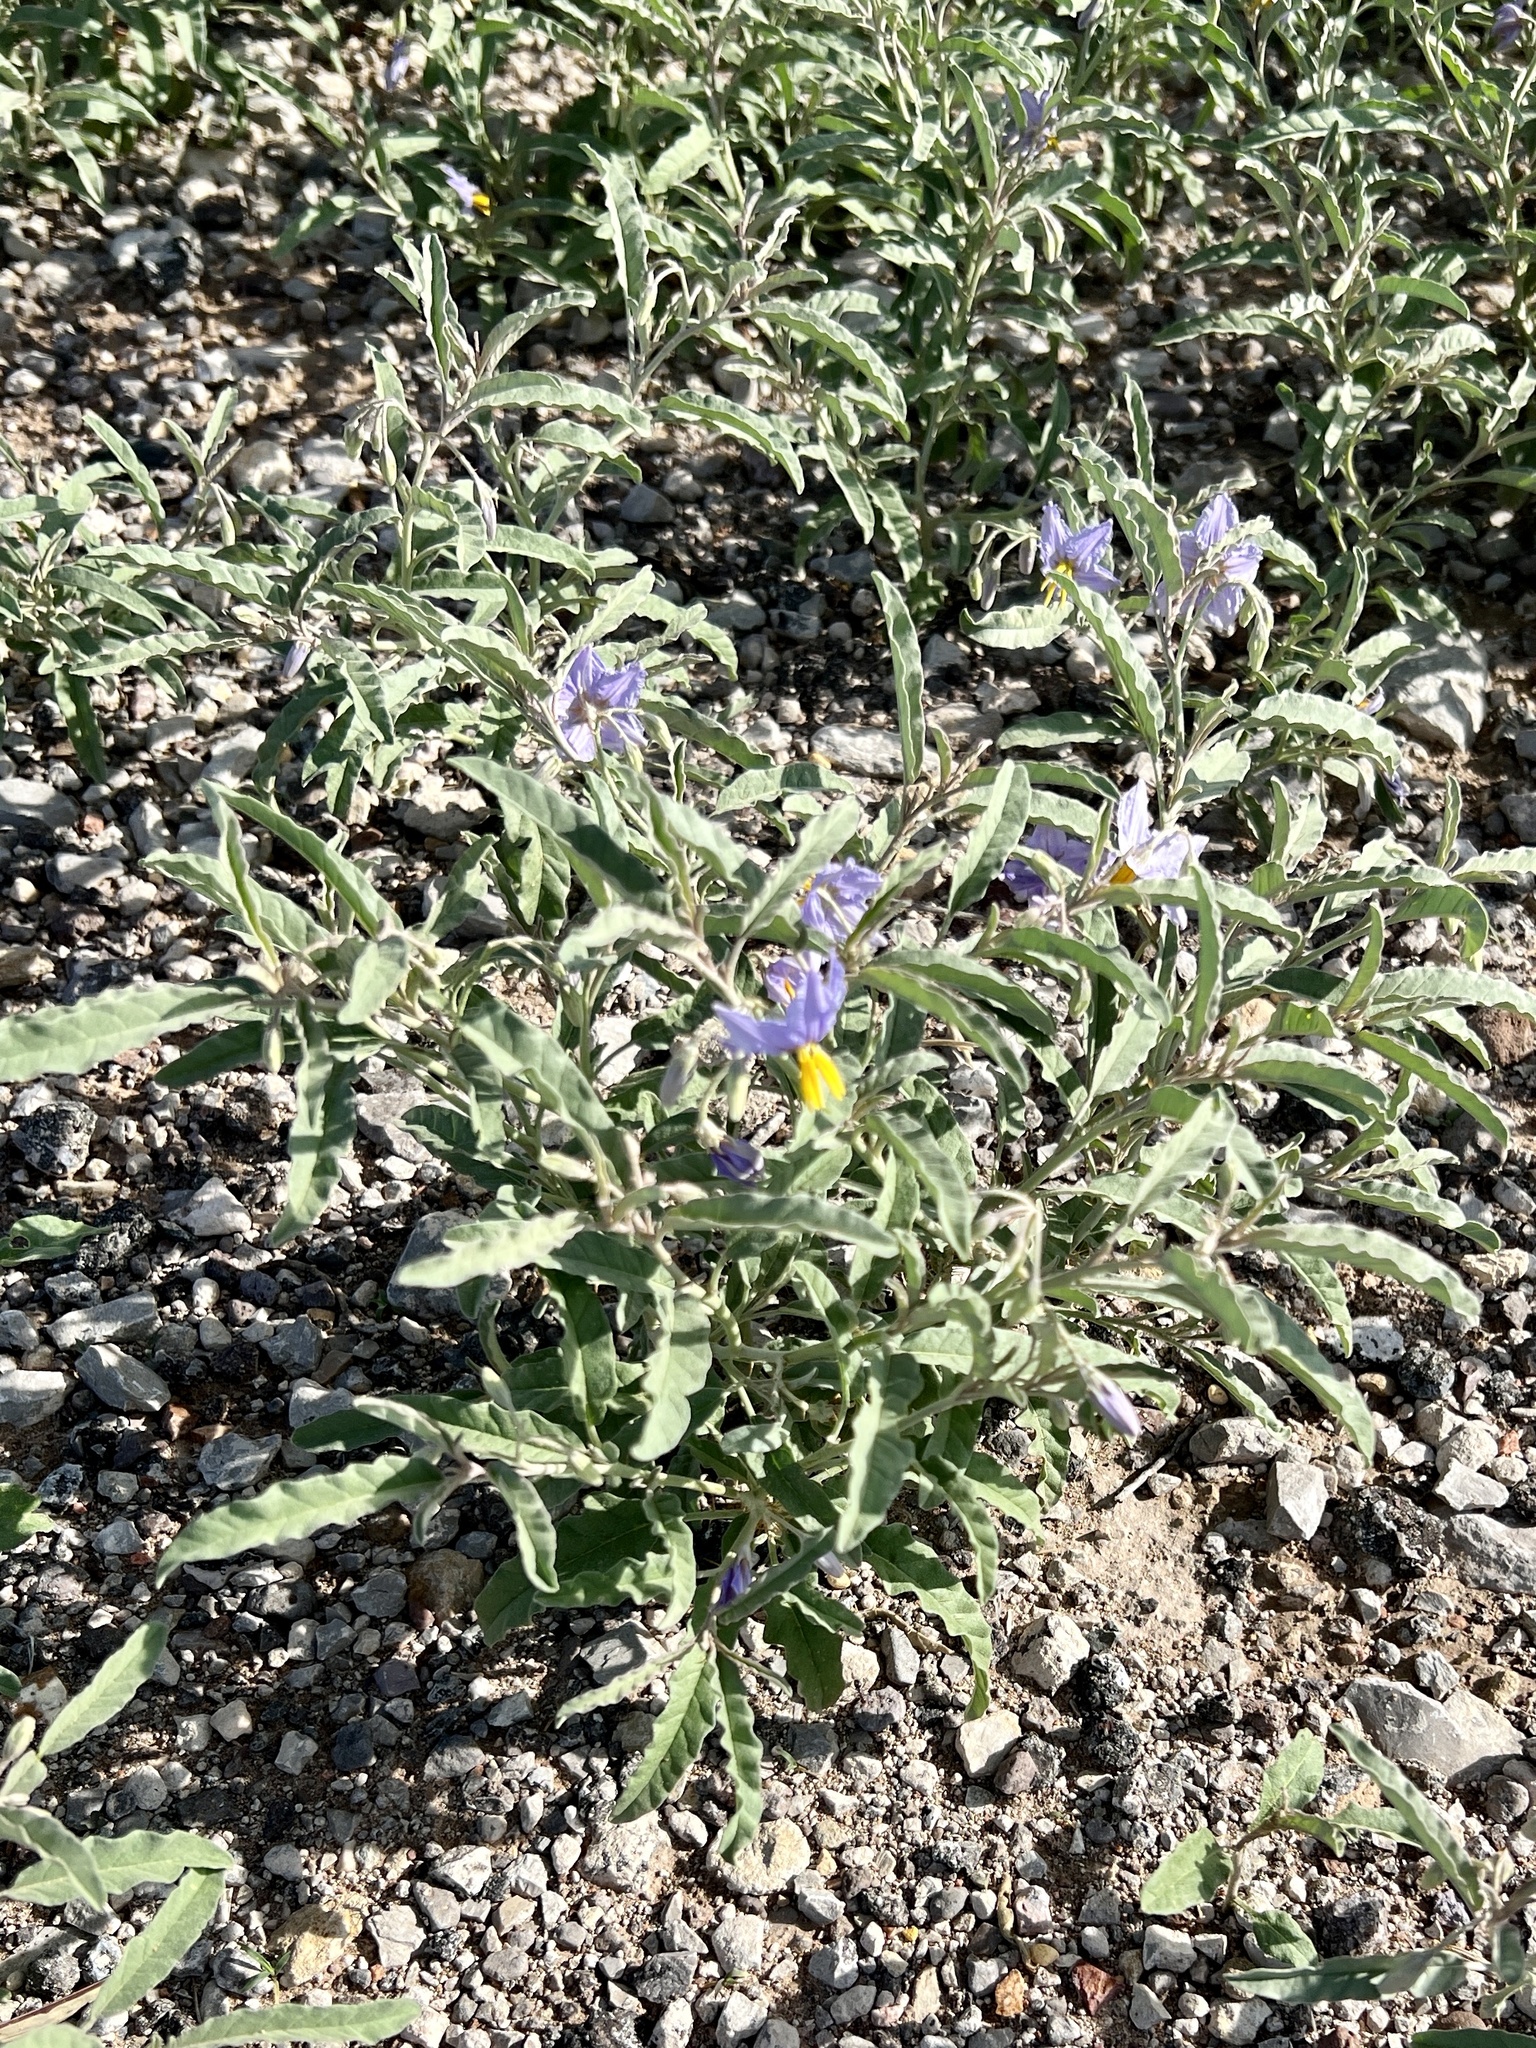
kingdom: Plantae
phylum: Tracheophyta
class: Magnoliopsida
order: Solanales
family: Solanaceae
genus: Solanum
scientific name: Solanum elaeagnifolium
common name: Silverleaf nightshade
